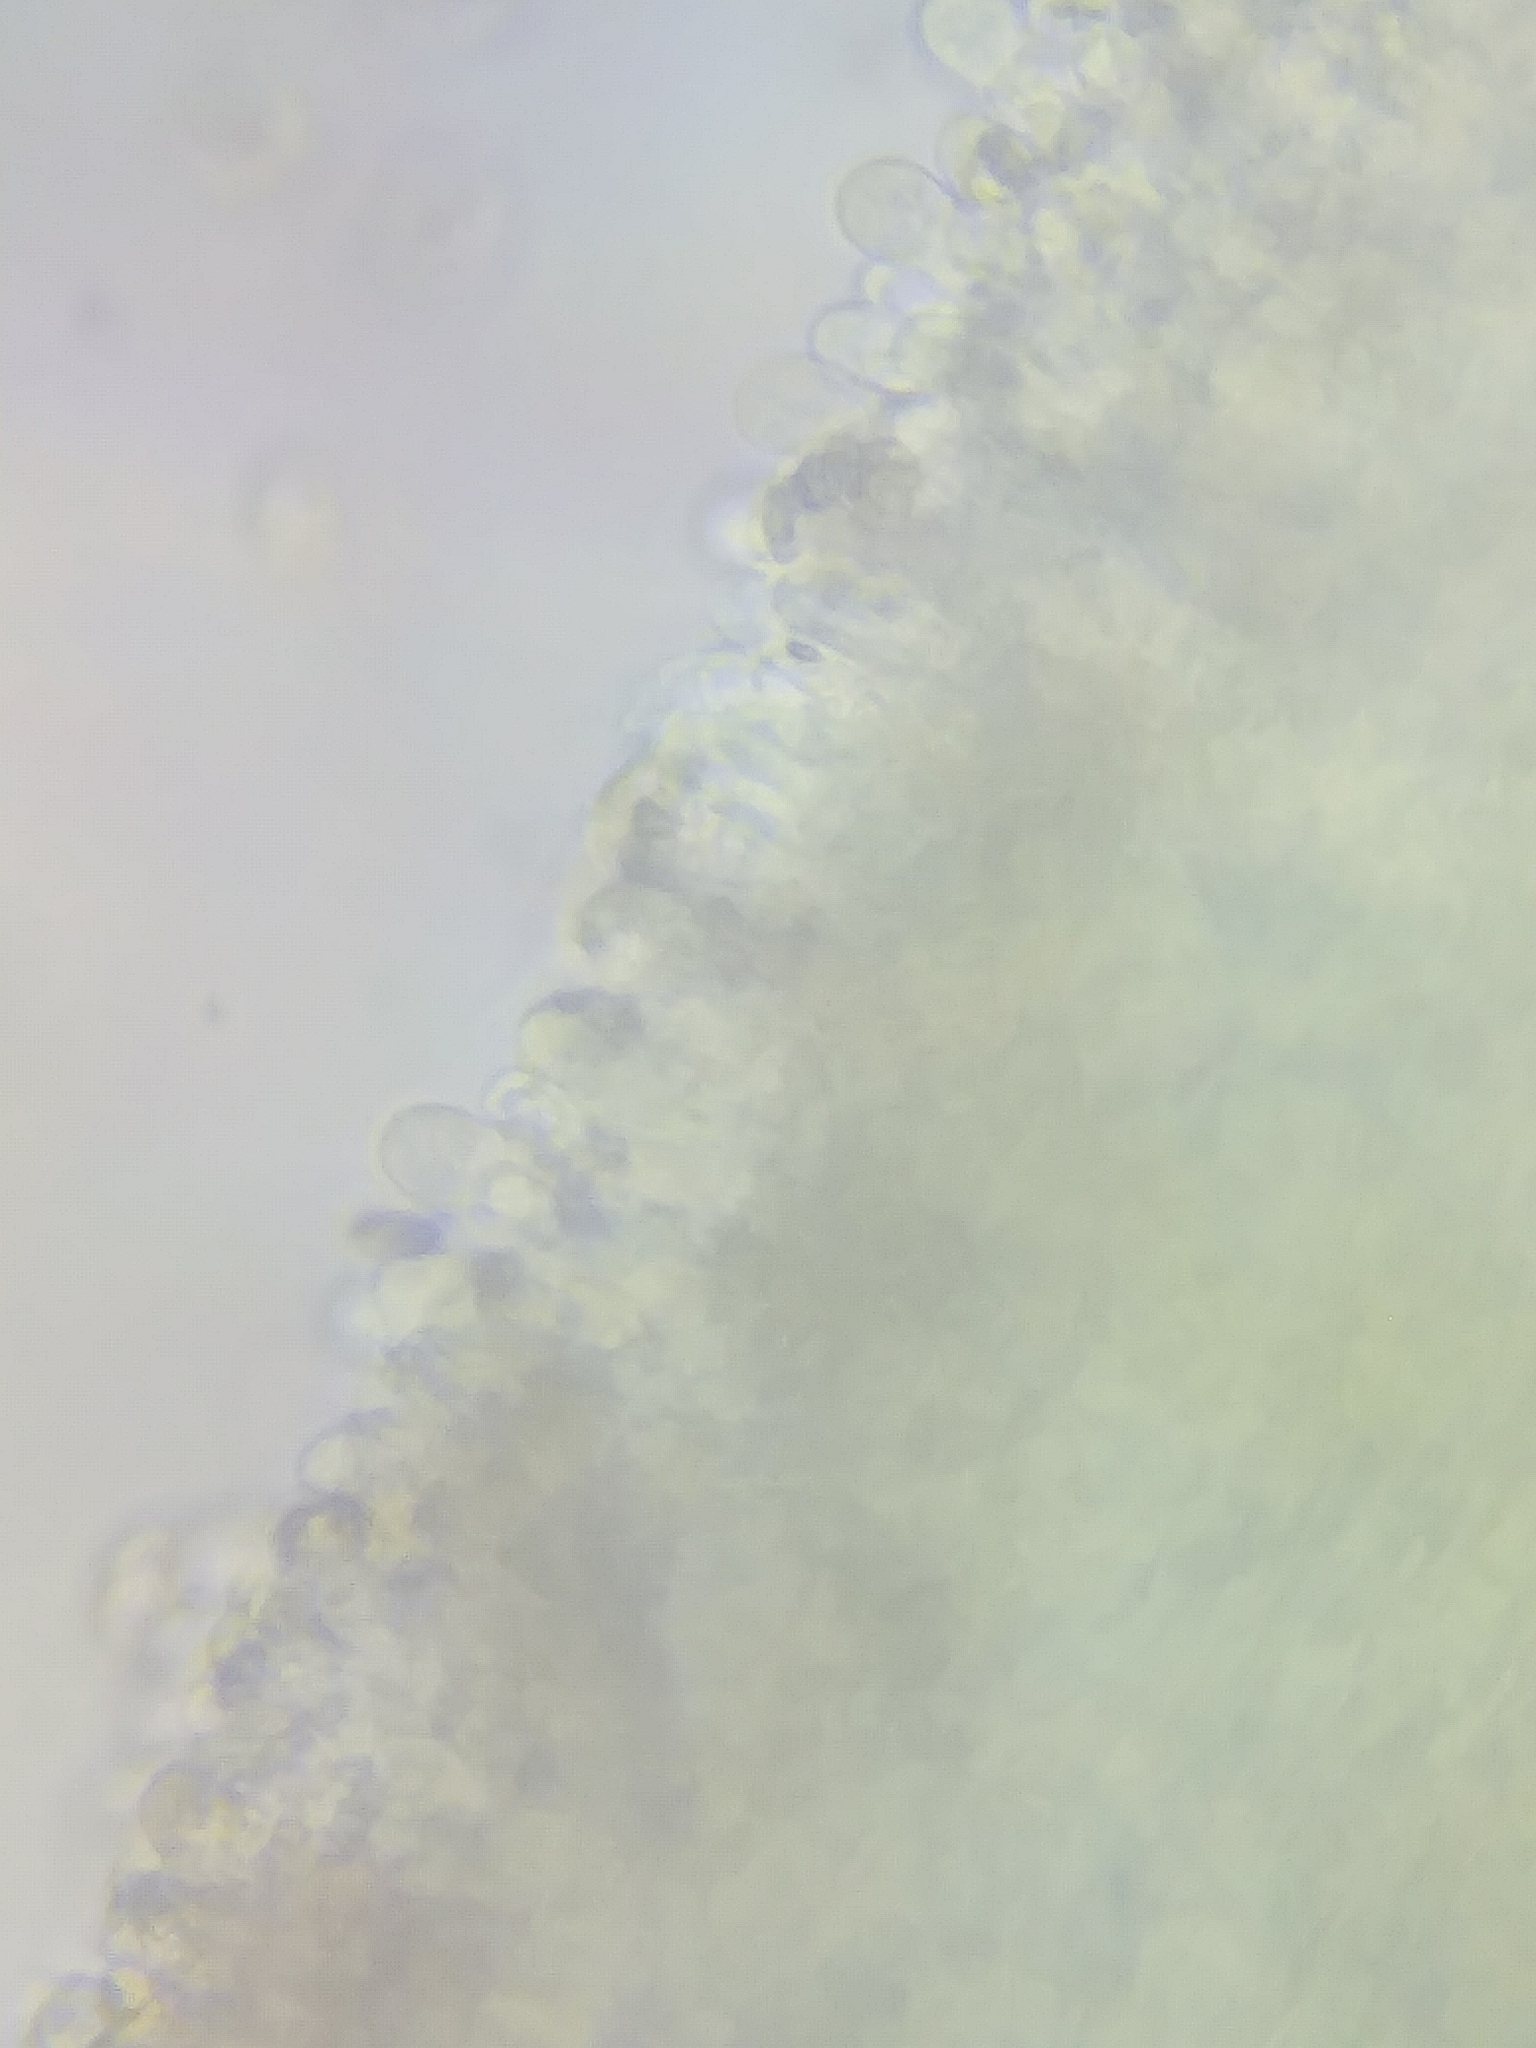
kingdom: Fungi
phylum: Basidiomycota
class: Agaricomycetes
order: Agaricales
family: Tubariaceae
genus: Tubaria
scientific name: Tubaria furfuracea
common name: Scurfy twiglet
